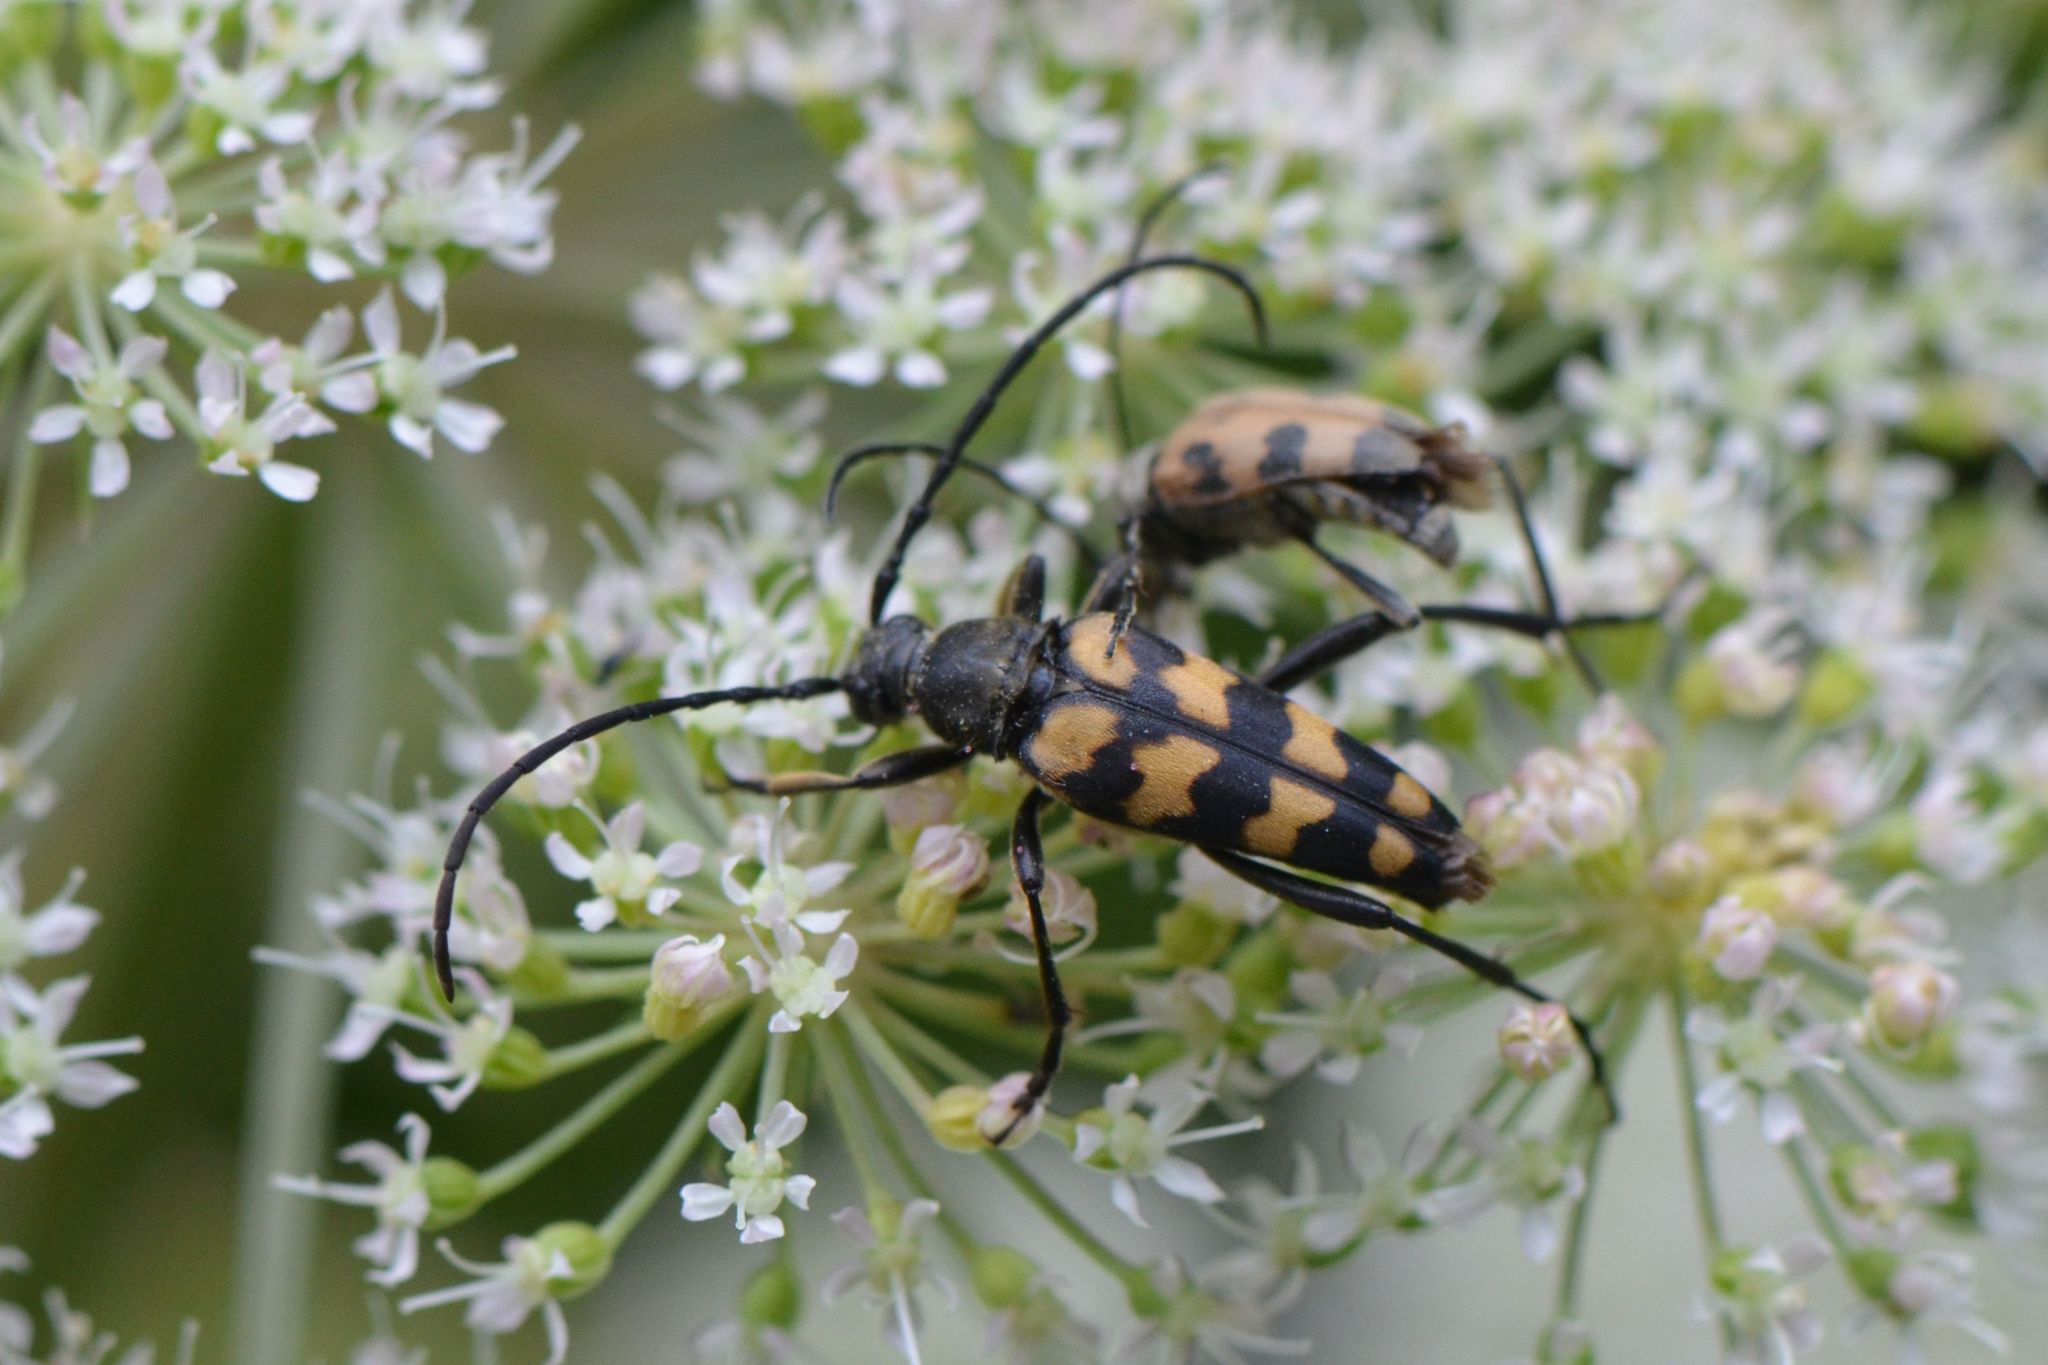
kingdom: Animalia
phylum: Arthropoda
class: Insecta
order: Coleoptera
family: Cerambycidae
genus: Leptura
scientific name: Leptura quadrifasciata
